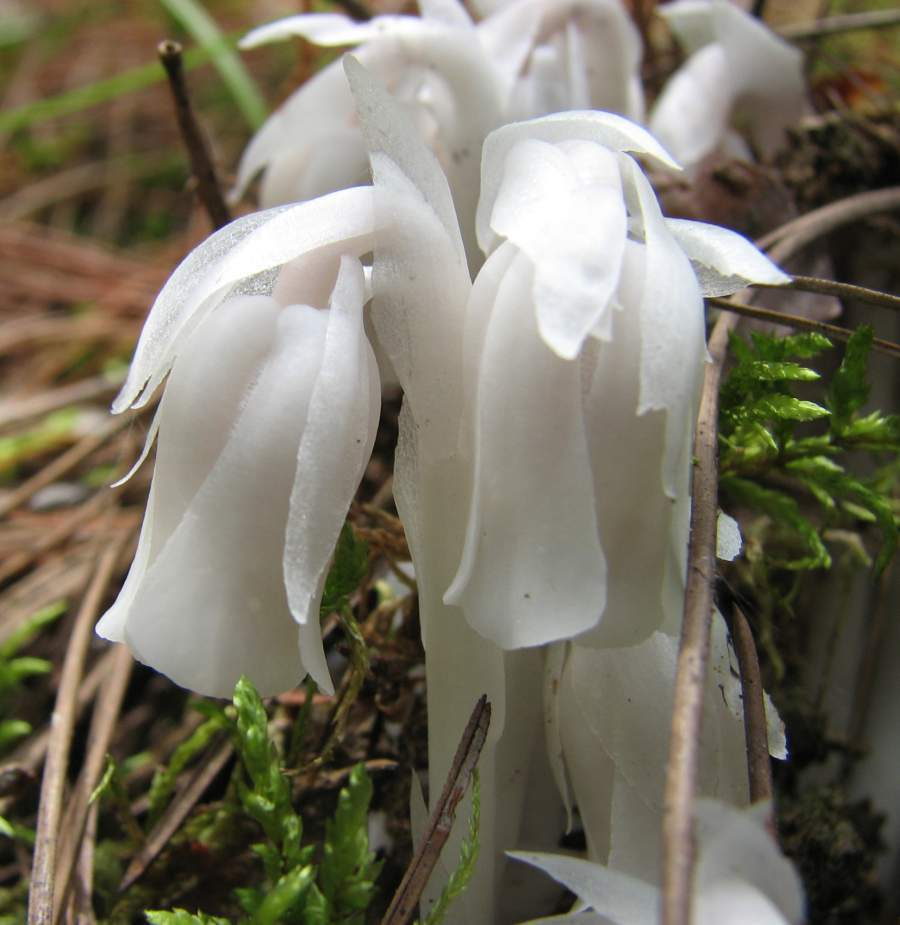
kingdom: Plantae
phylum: Tracheophyta
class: Magnoliopsida
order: Ericales
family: Ericaceae
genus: Monotropa
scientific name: Monotropa uniflora
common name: Convulsion root
